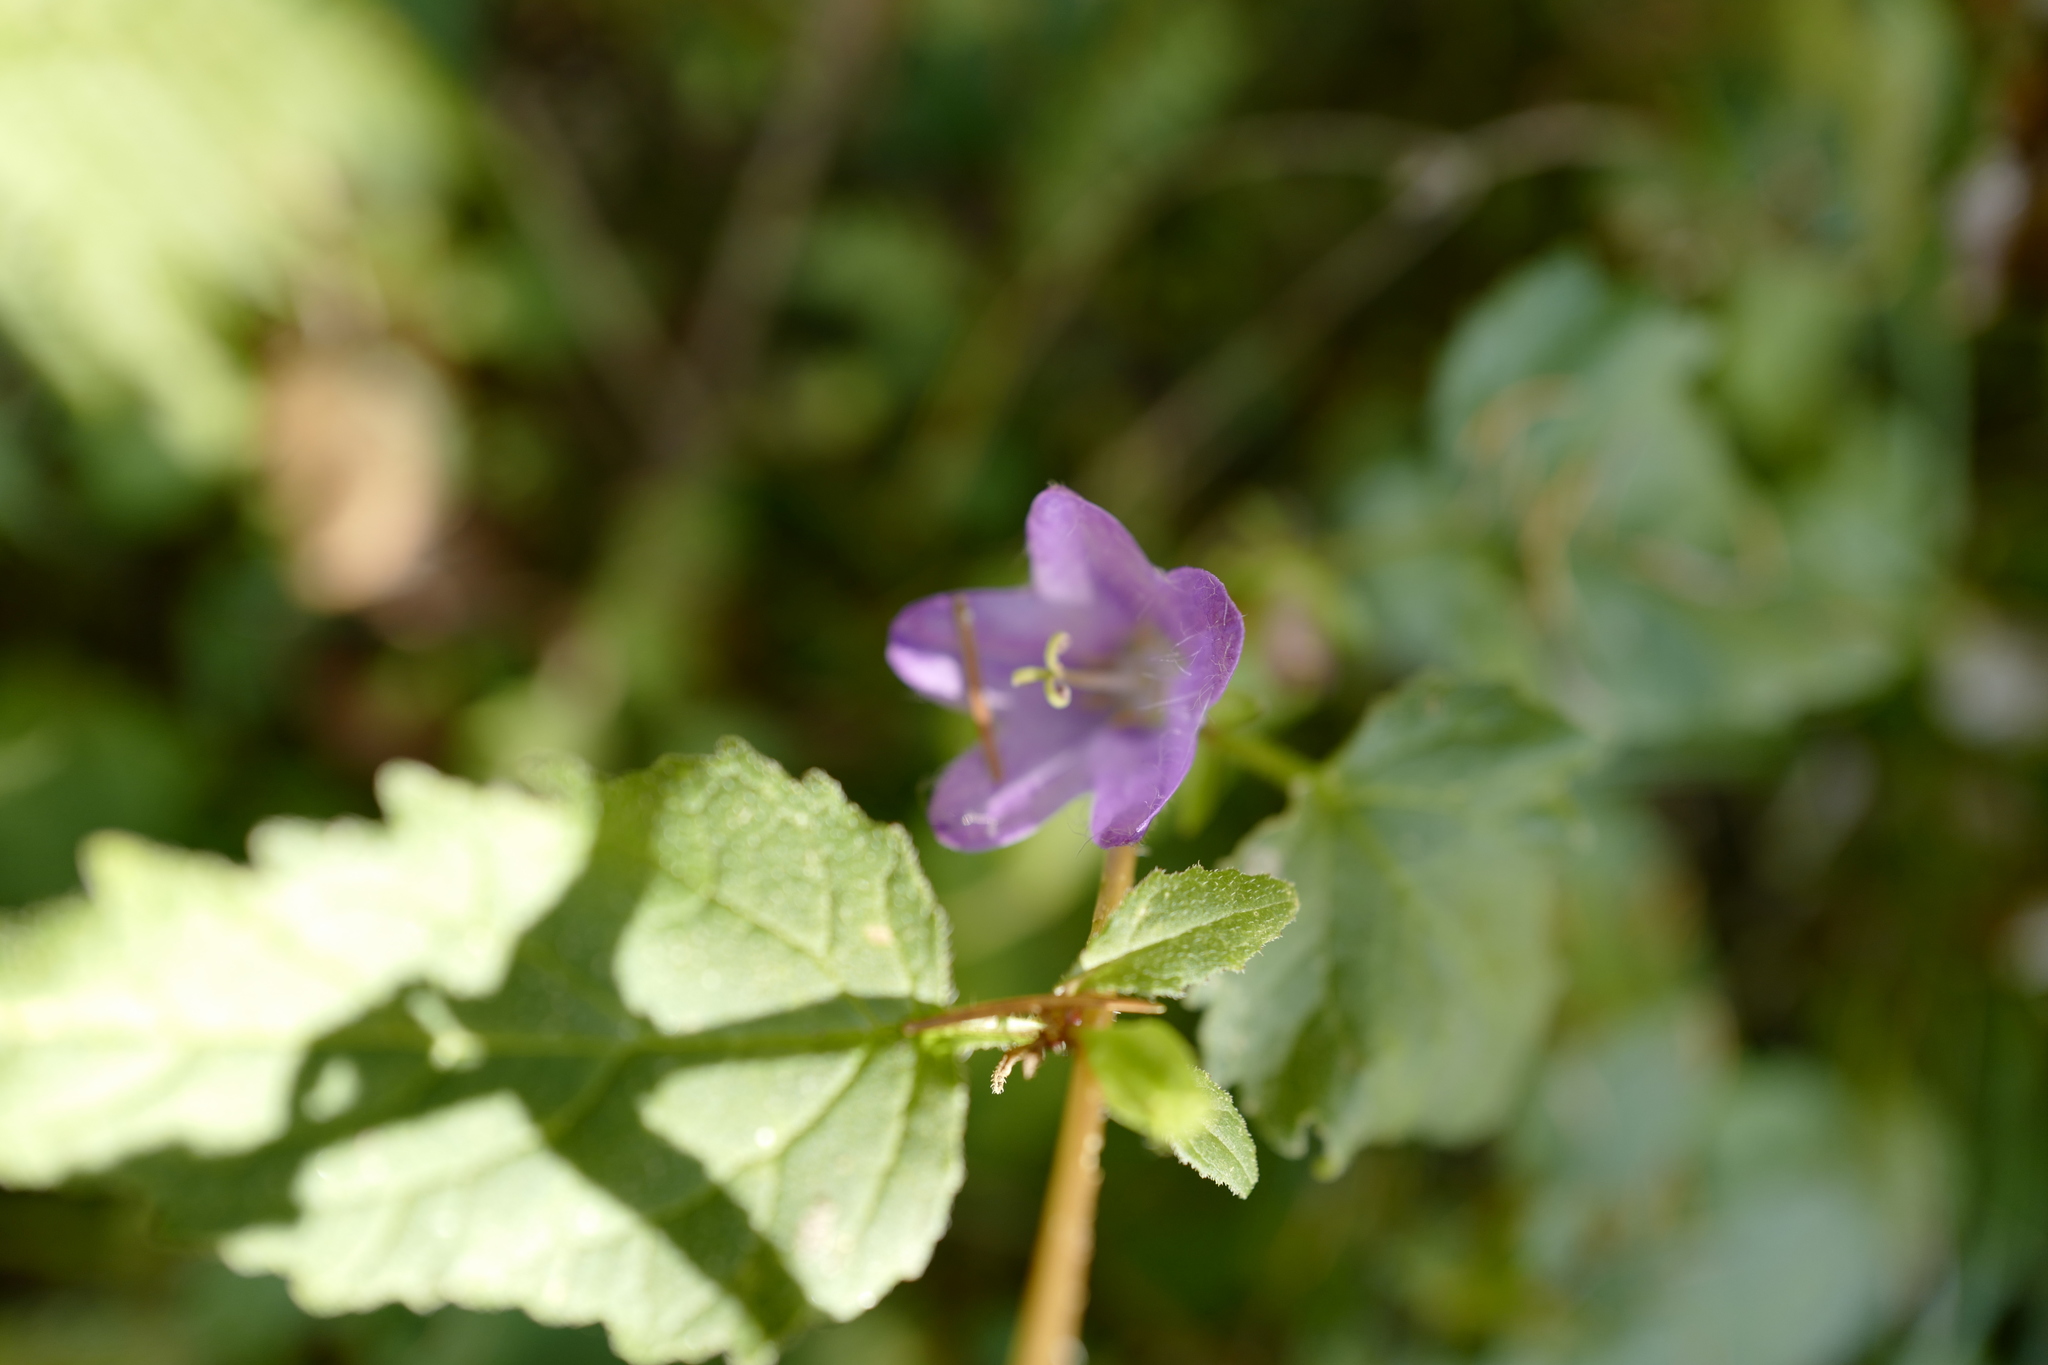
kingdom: Plantae
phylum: Tracheophyta
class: Magnoliopsida
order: Asterales
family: Campanulaceae
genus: Campanula
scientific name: Campanula trachelium
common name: Nettle-leaved bellflower
